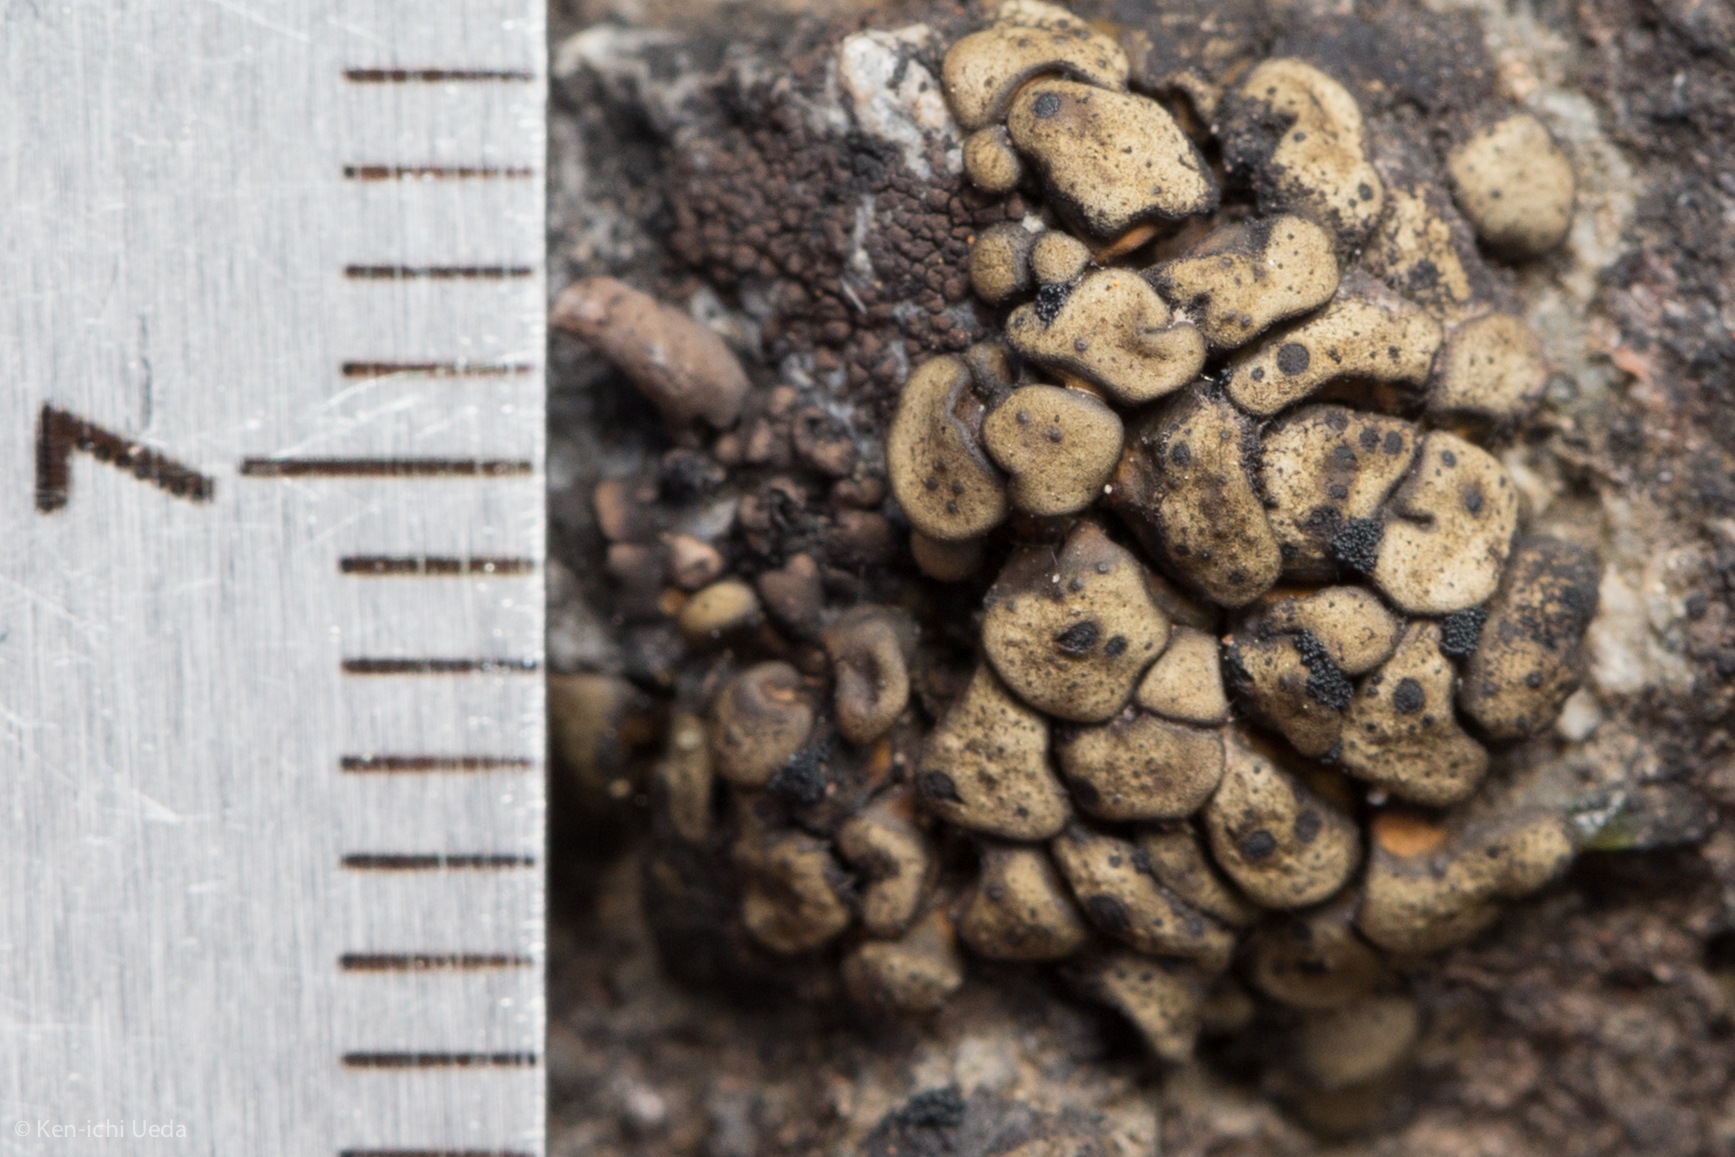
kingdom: Fungi
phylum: Ascomycota
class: Lichinomycetes
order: Lichinales
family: Peltulaceae
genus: Peltula
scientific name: Peltula zahlbruckneri
